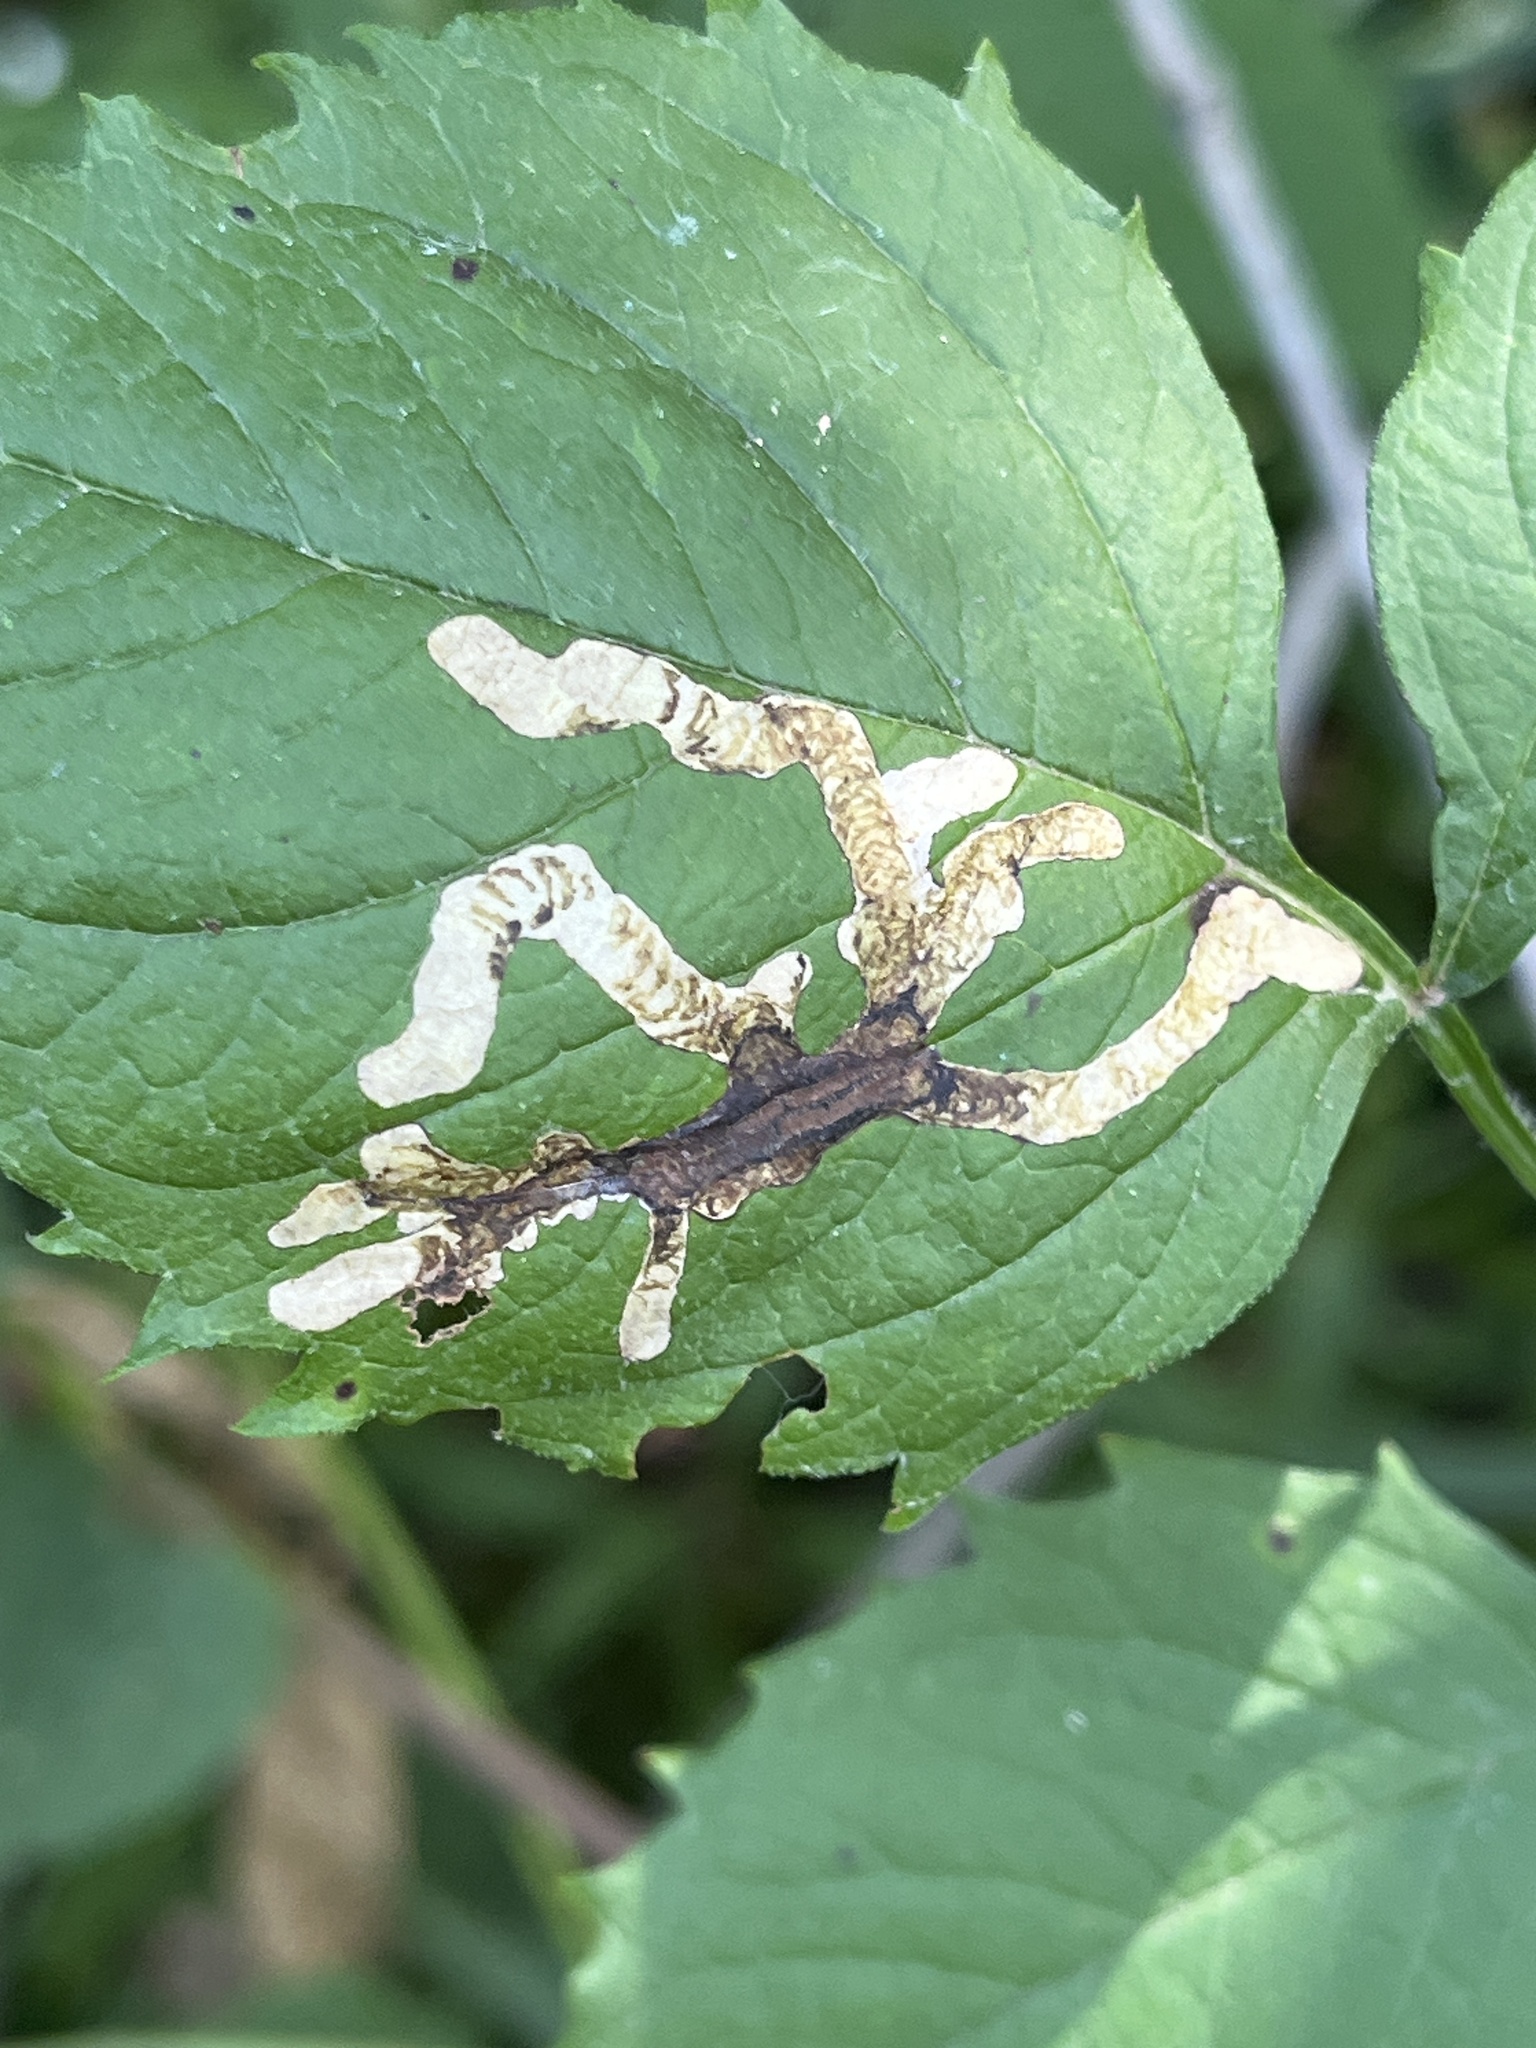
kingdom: Animalia
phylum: Arthropoda
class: Insecta
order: Coleoptera
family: Chrysomelidae
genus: Octotoma
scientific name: Octotoma plicatula
